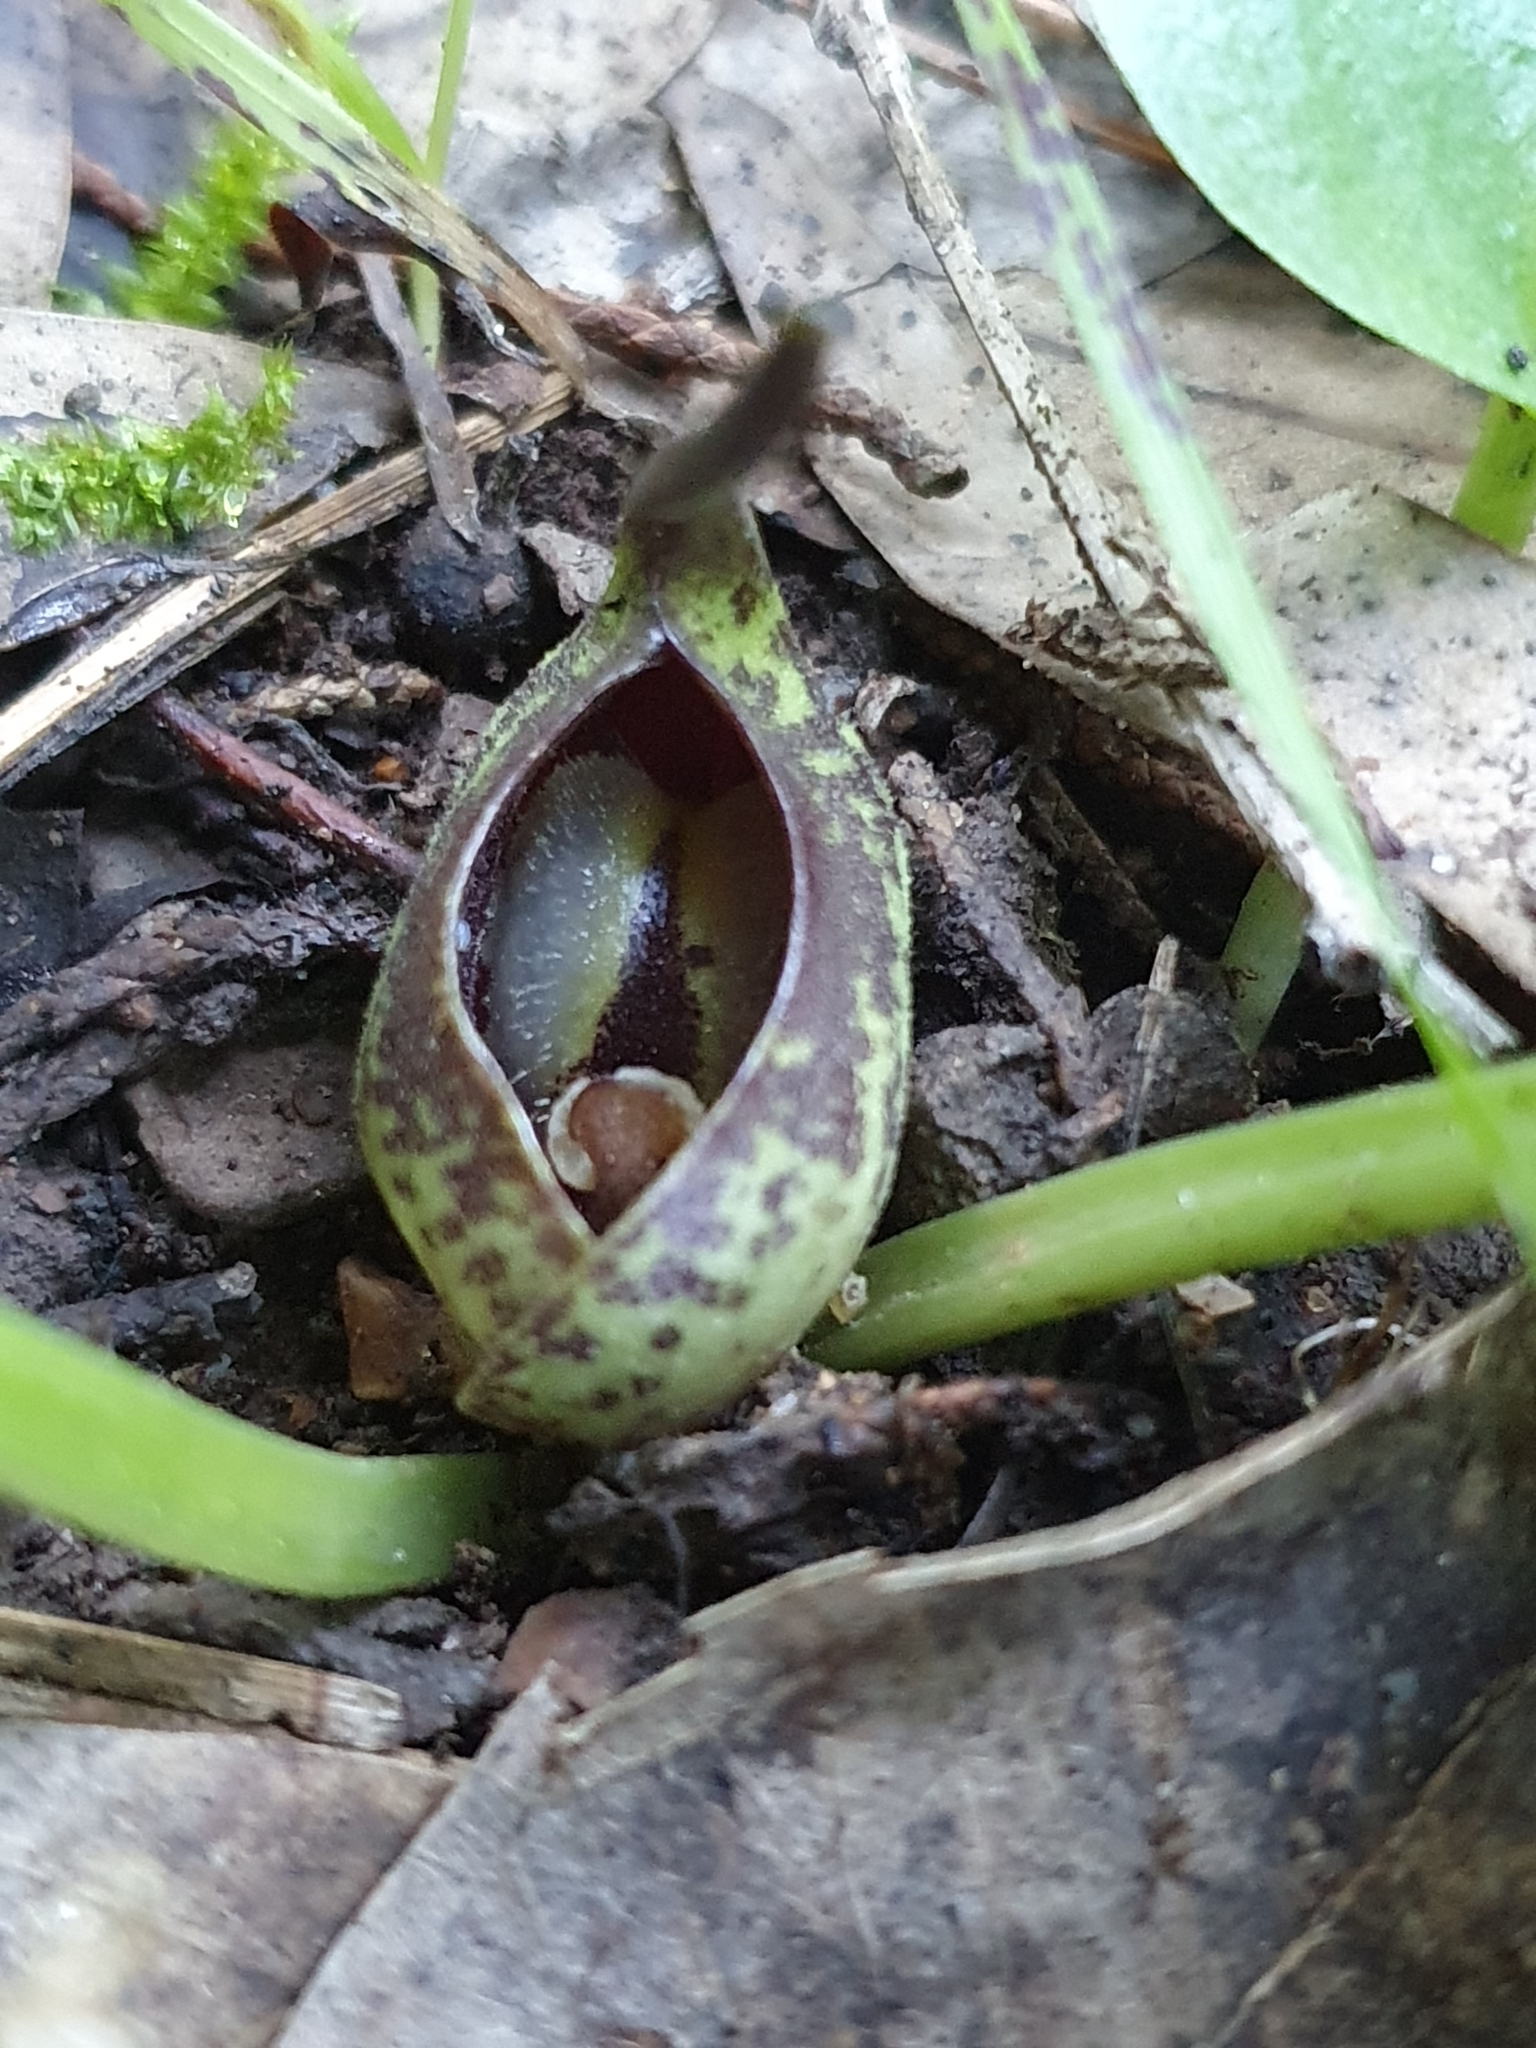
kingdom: Plantae
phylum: Tracheophyta
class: Liliopsida
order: Alismatales
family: Araceae
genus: Ambrosina
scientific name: Ambrosina bassii
